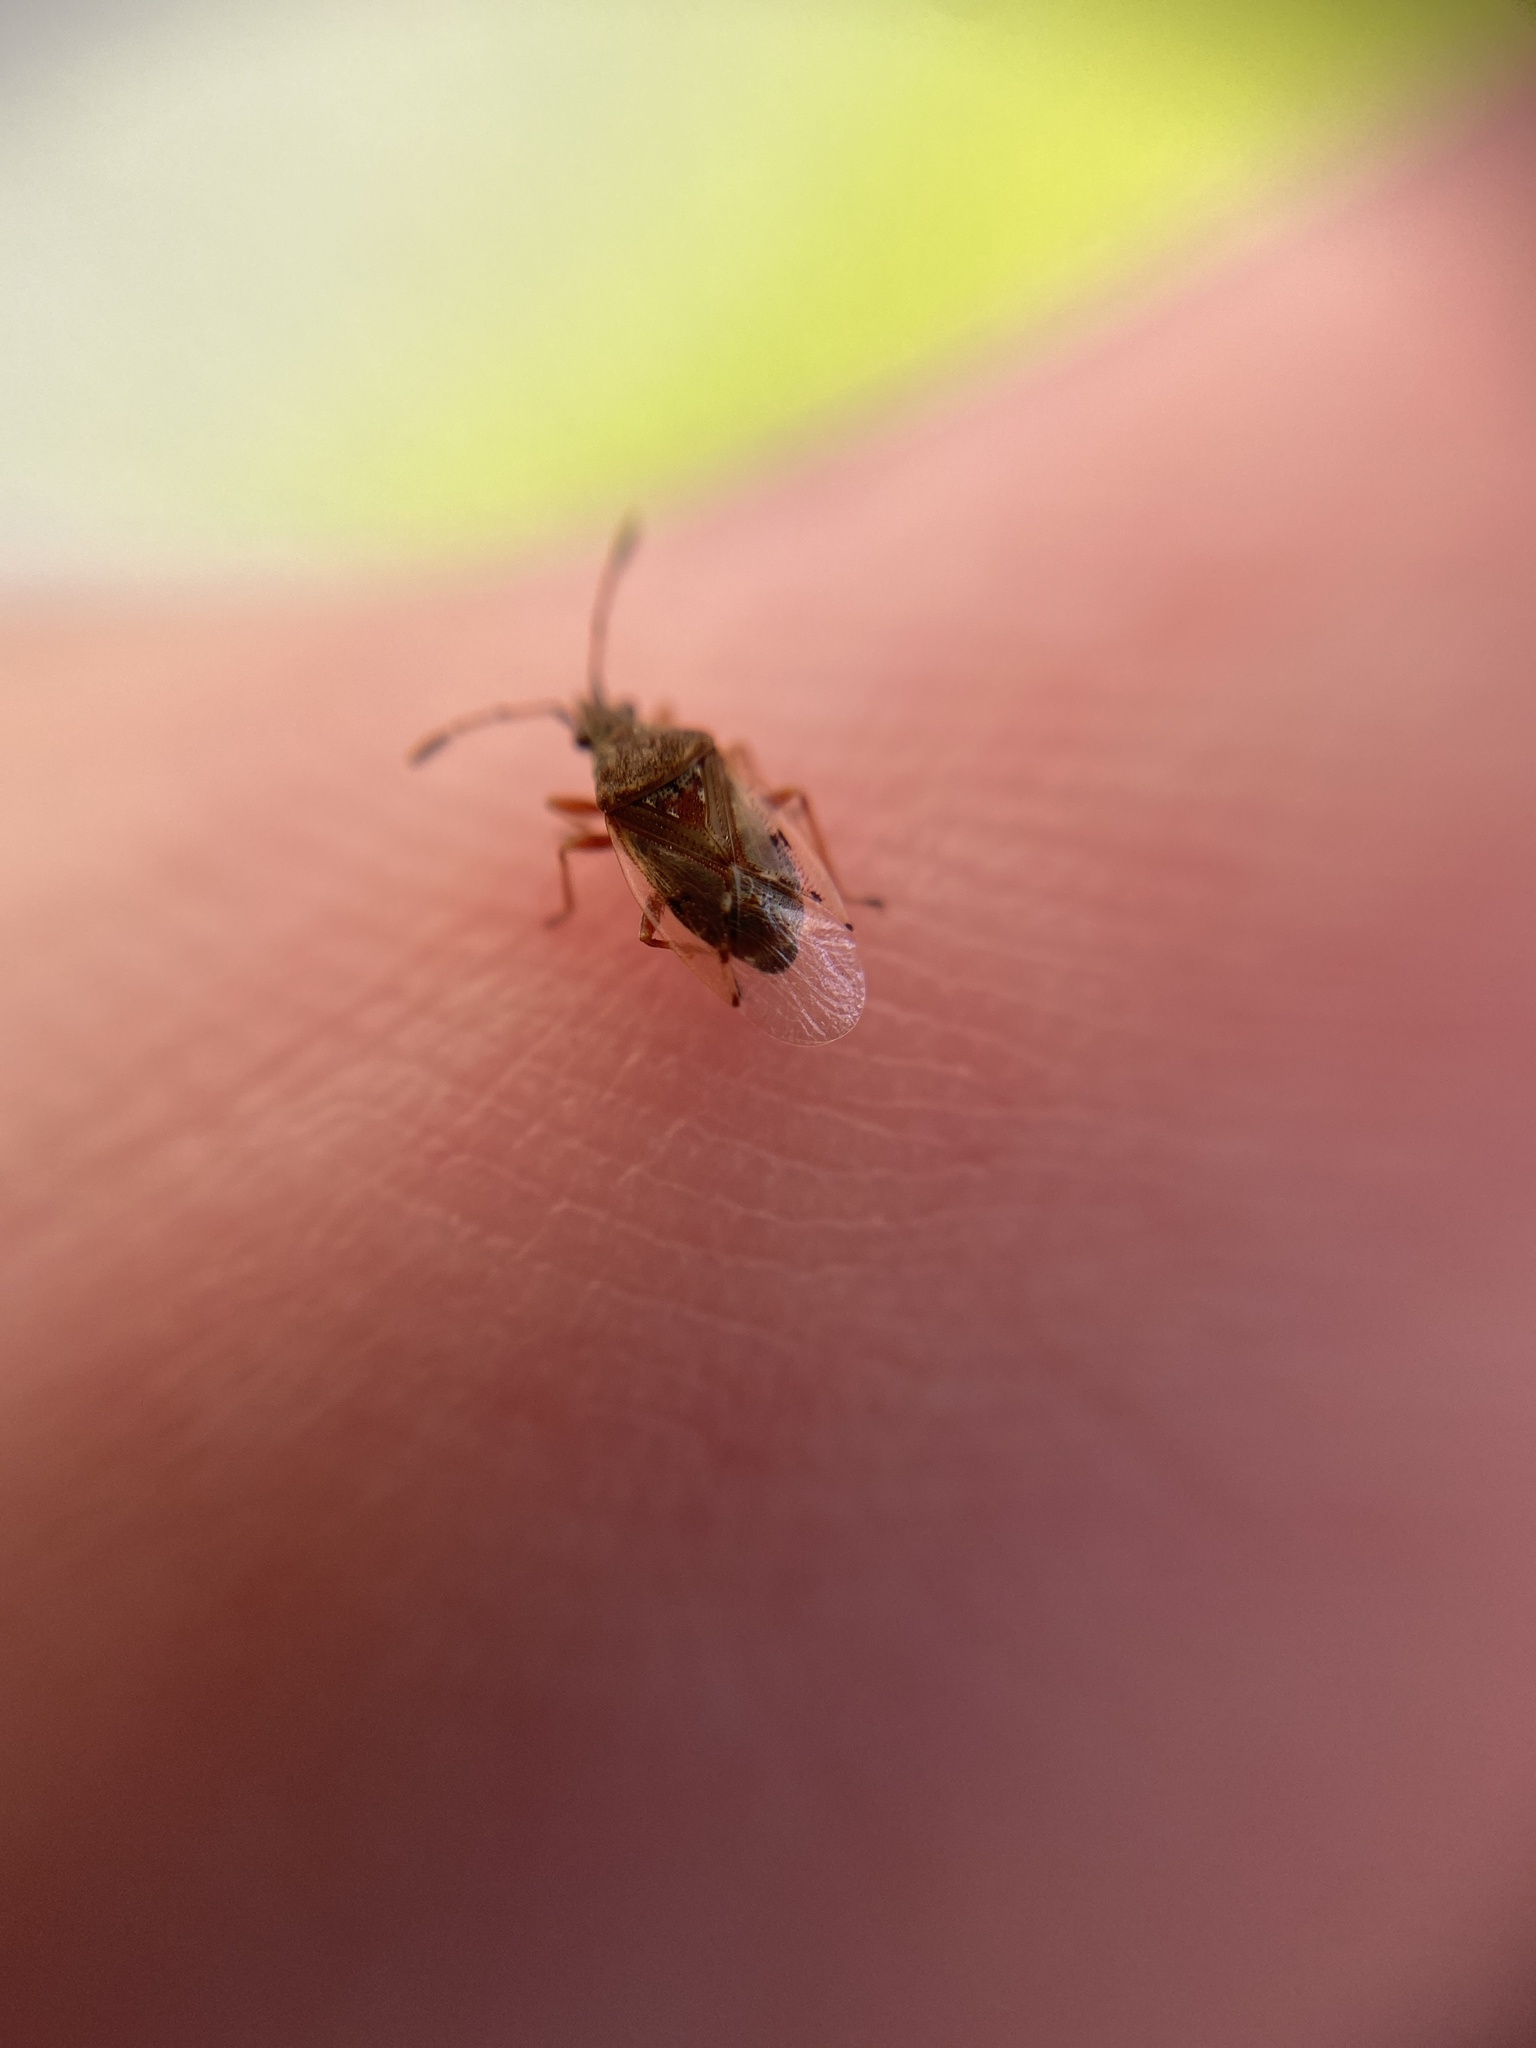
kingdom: Animalia
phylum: Arthropoda
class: Insecta
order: Hemiptera
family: Lygaeidae
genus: Kleidocerys
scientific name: Kleidocerys resedae
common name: Birch catkin bug
